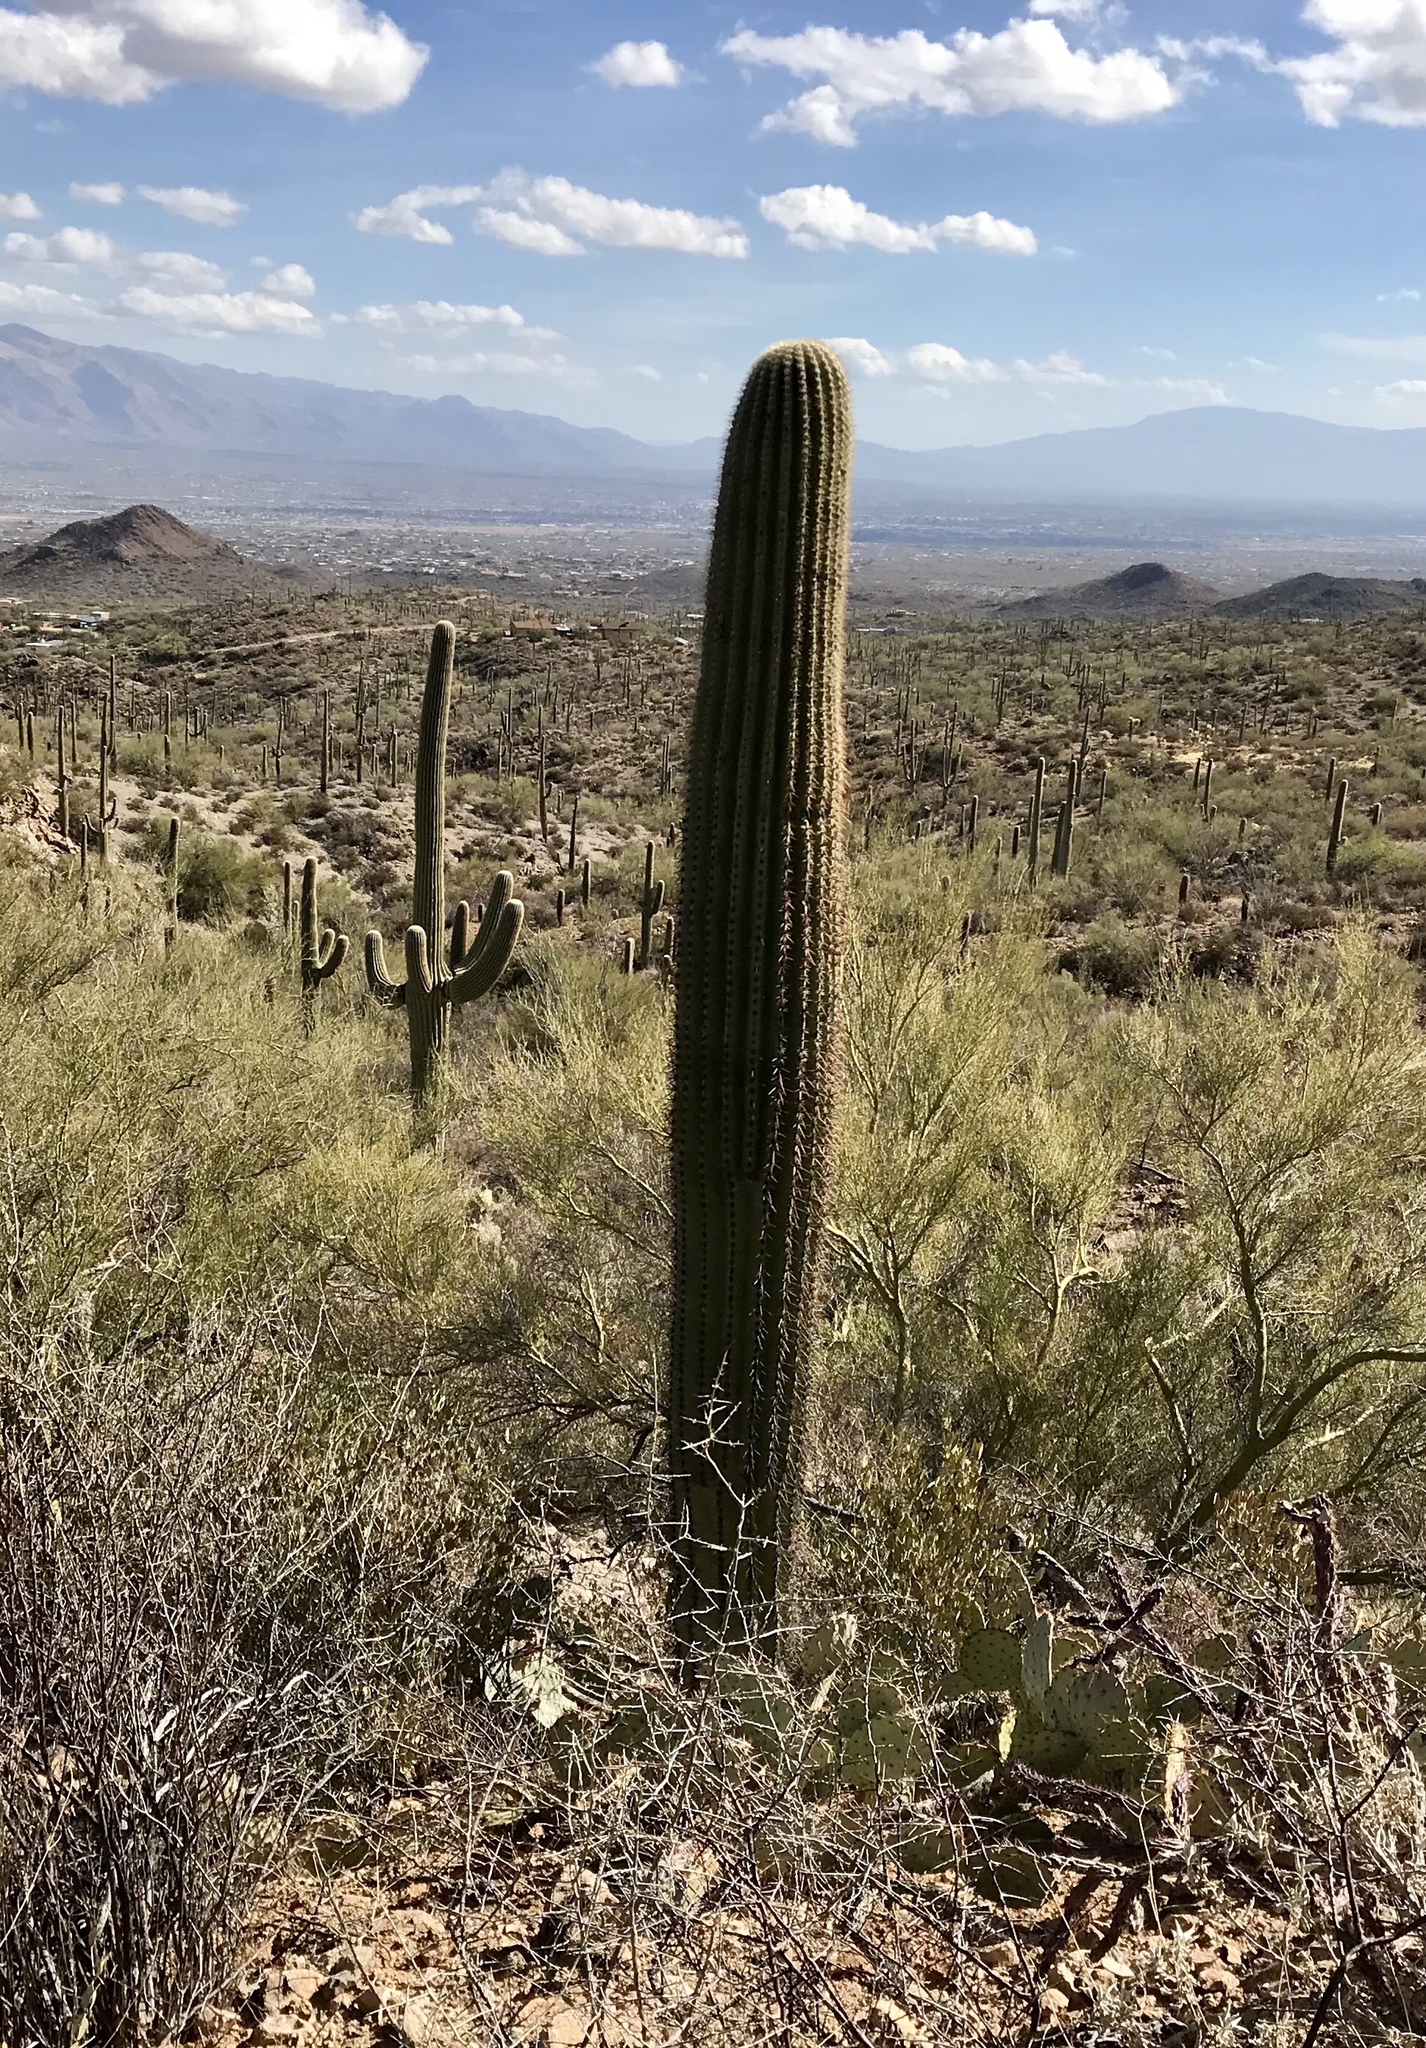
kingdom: Plantae
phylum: Tracheophyta
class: Magnoliopsida
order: Caryophyllales
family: Cactaceae
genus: Carnegiea
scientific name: Carnegiea gigantea
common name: Saguaro
